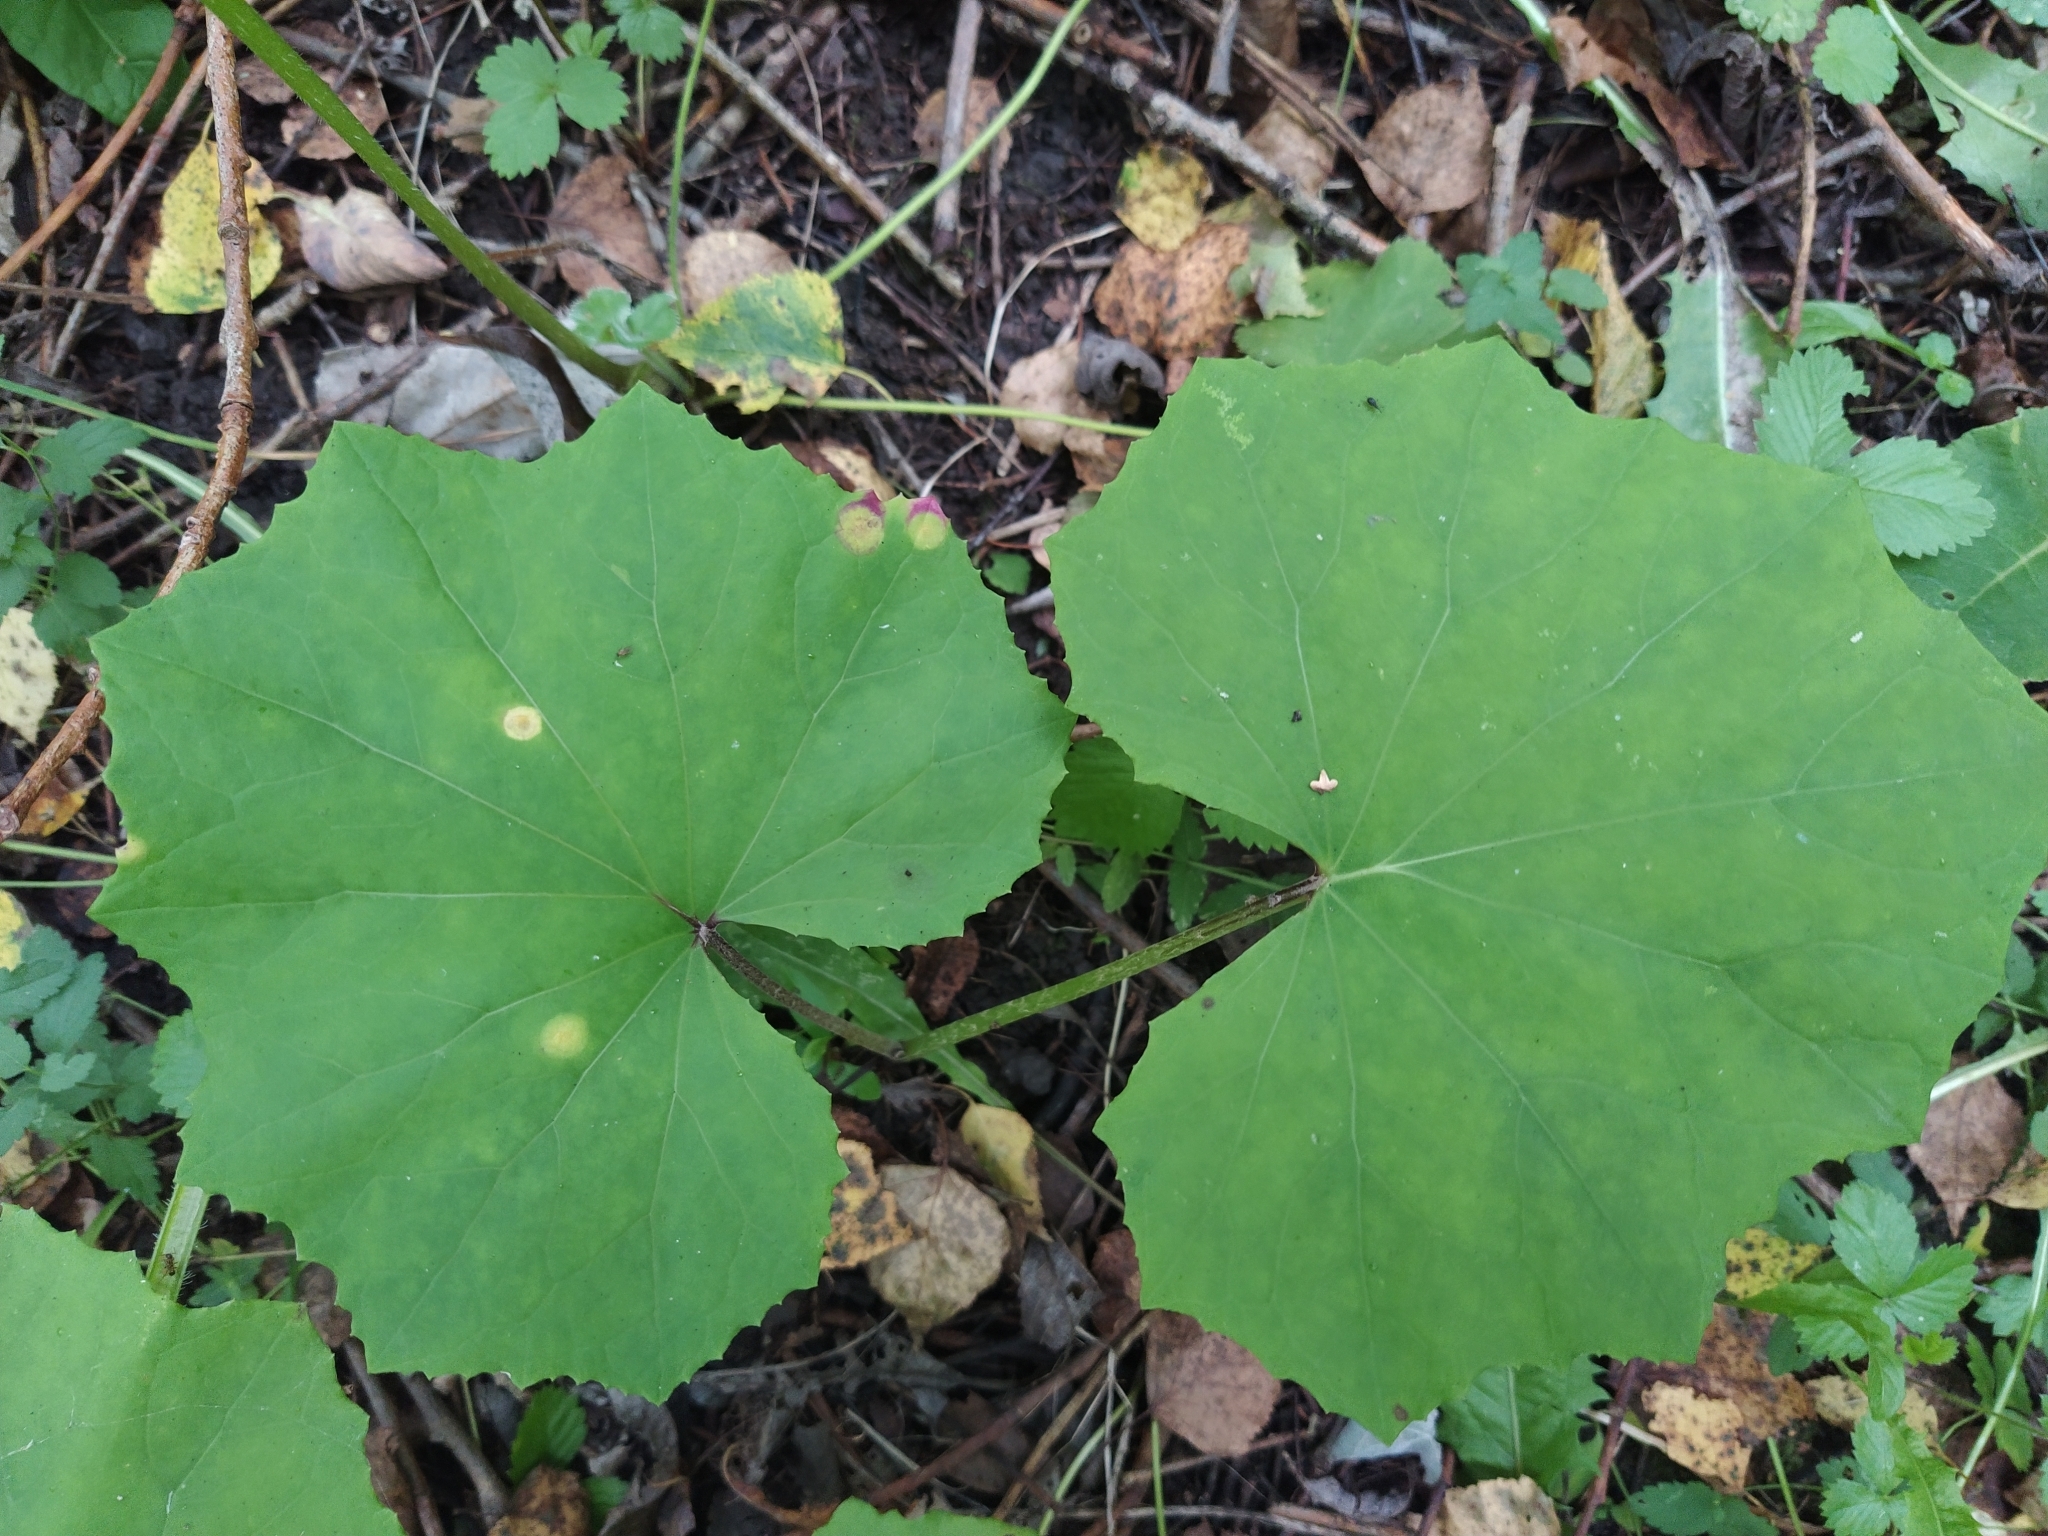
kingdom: Plantae
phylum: Tracheophyta
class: Magnoliopsida
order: Asterales
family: Asteraceae
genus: Tussilago
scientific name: Tussilago farfara
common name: Coltsfoot
